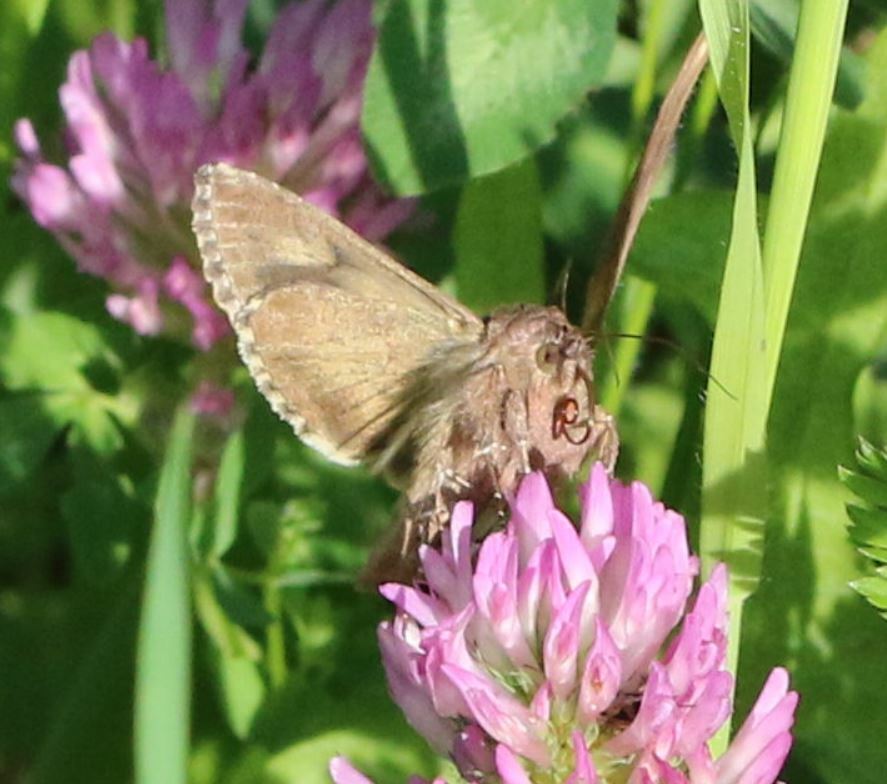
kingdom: Animalia
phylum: Arthropoda
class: Insecta
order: Lepidoptera
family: Noctuidae
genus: Autographa
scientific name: Autographa gamma
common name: Silver y
